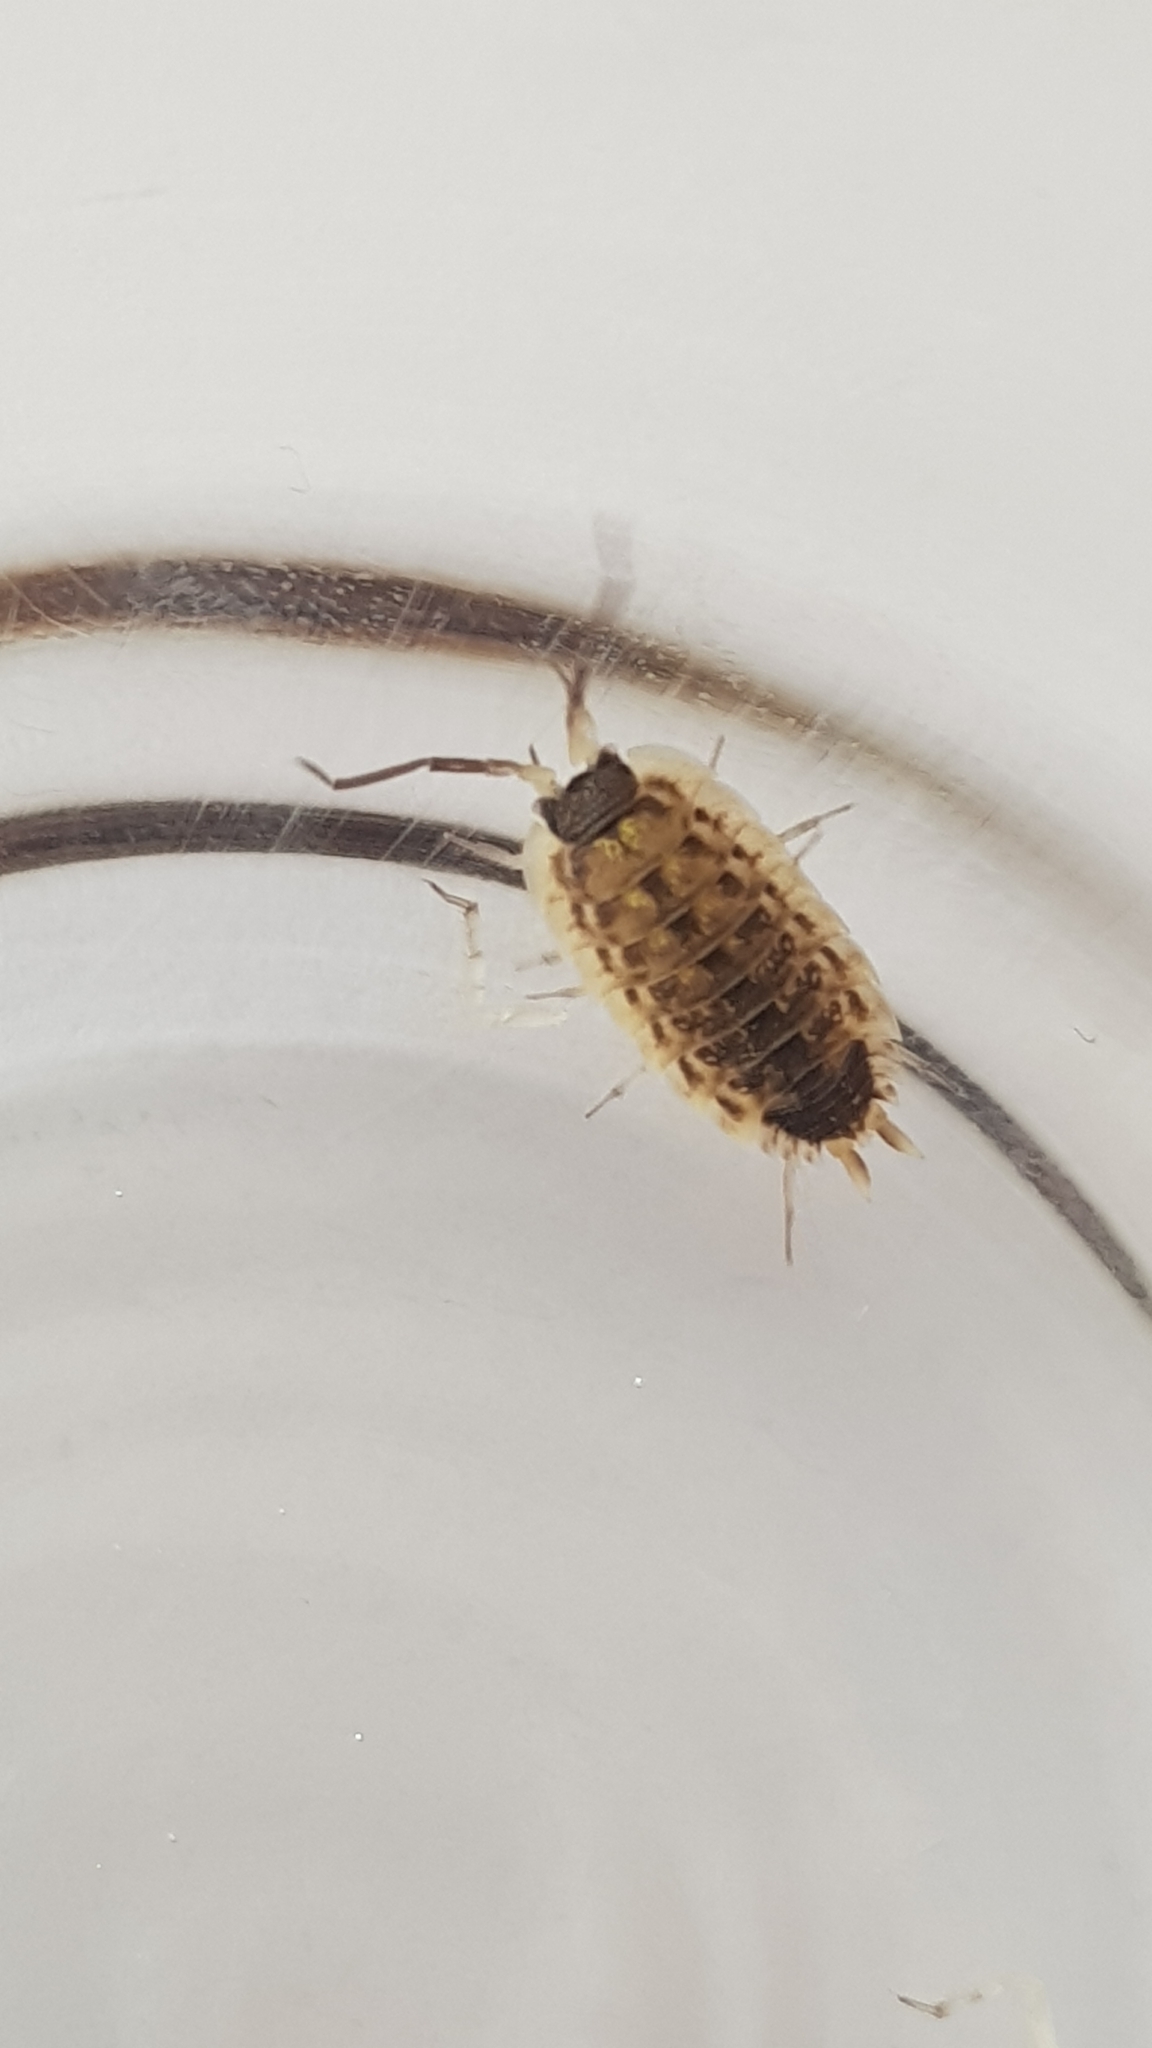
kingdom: Animalia
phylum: Arthropoda
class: Malacostraca
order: Isopoda
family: Porcellionidae
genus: Porcellio
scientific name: Porcellio spinicornis
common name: Painted woodlouse
